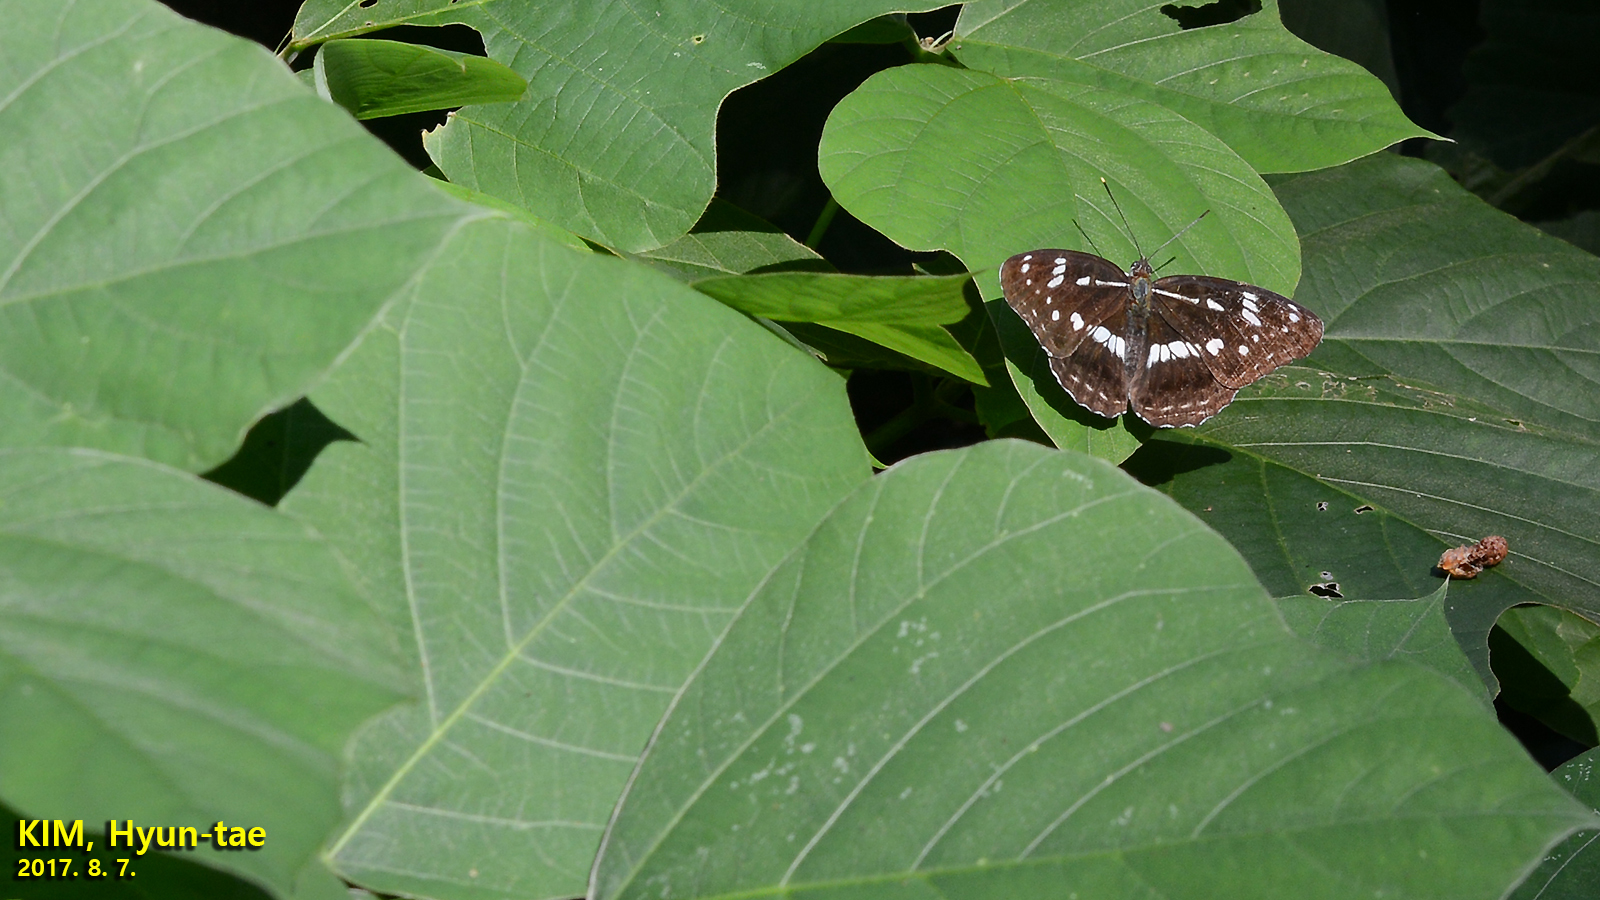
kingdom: Animalia
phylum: Arthropoda
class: Insecta
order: Lepidoptera
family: Nymphalidae
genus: Limenitis
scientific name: Limenitis helmanni
